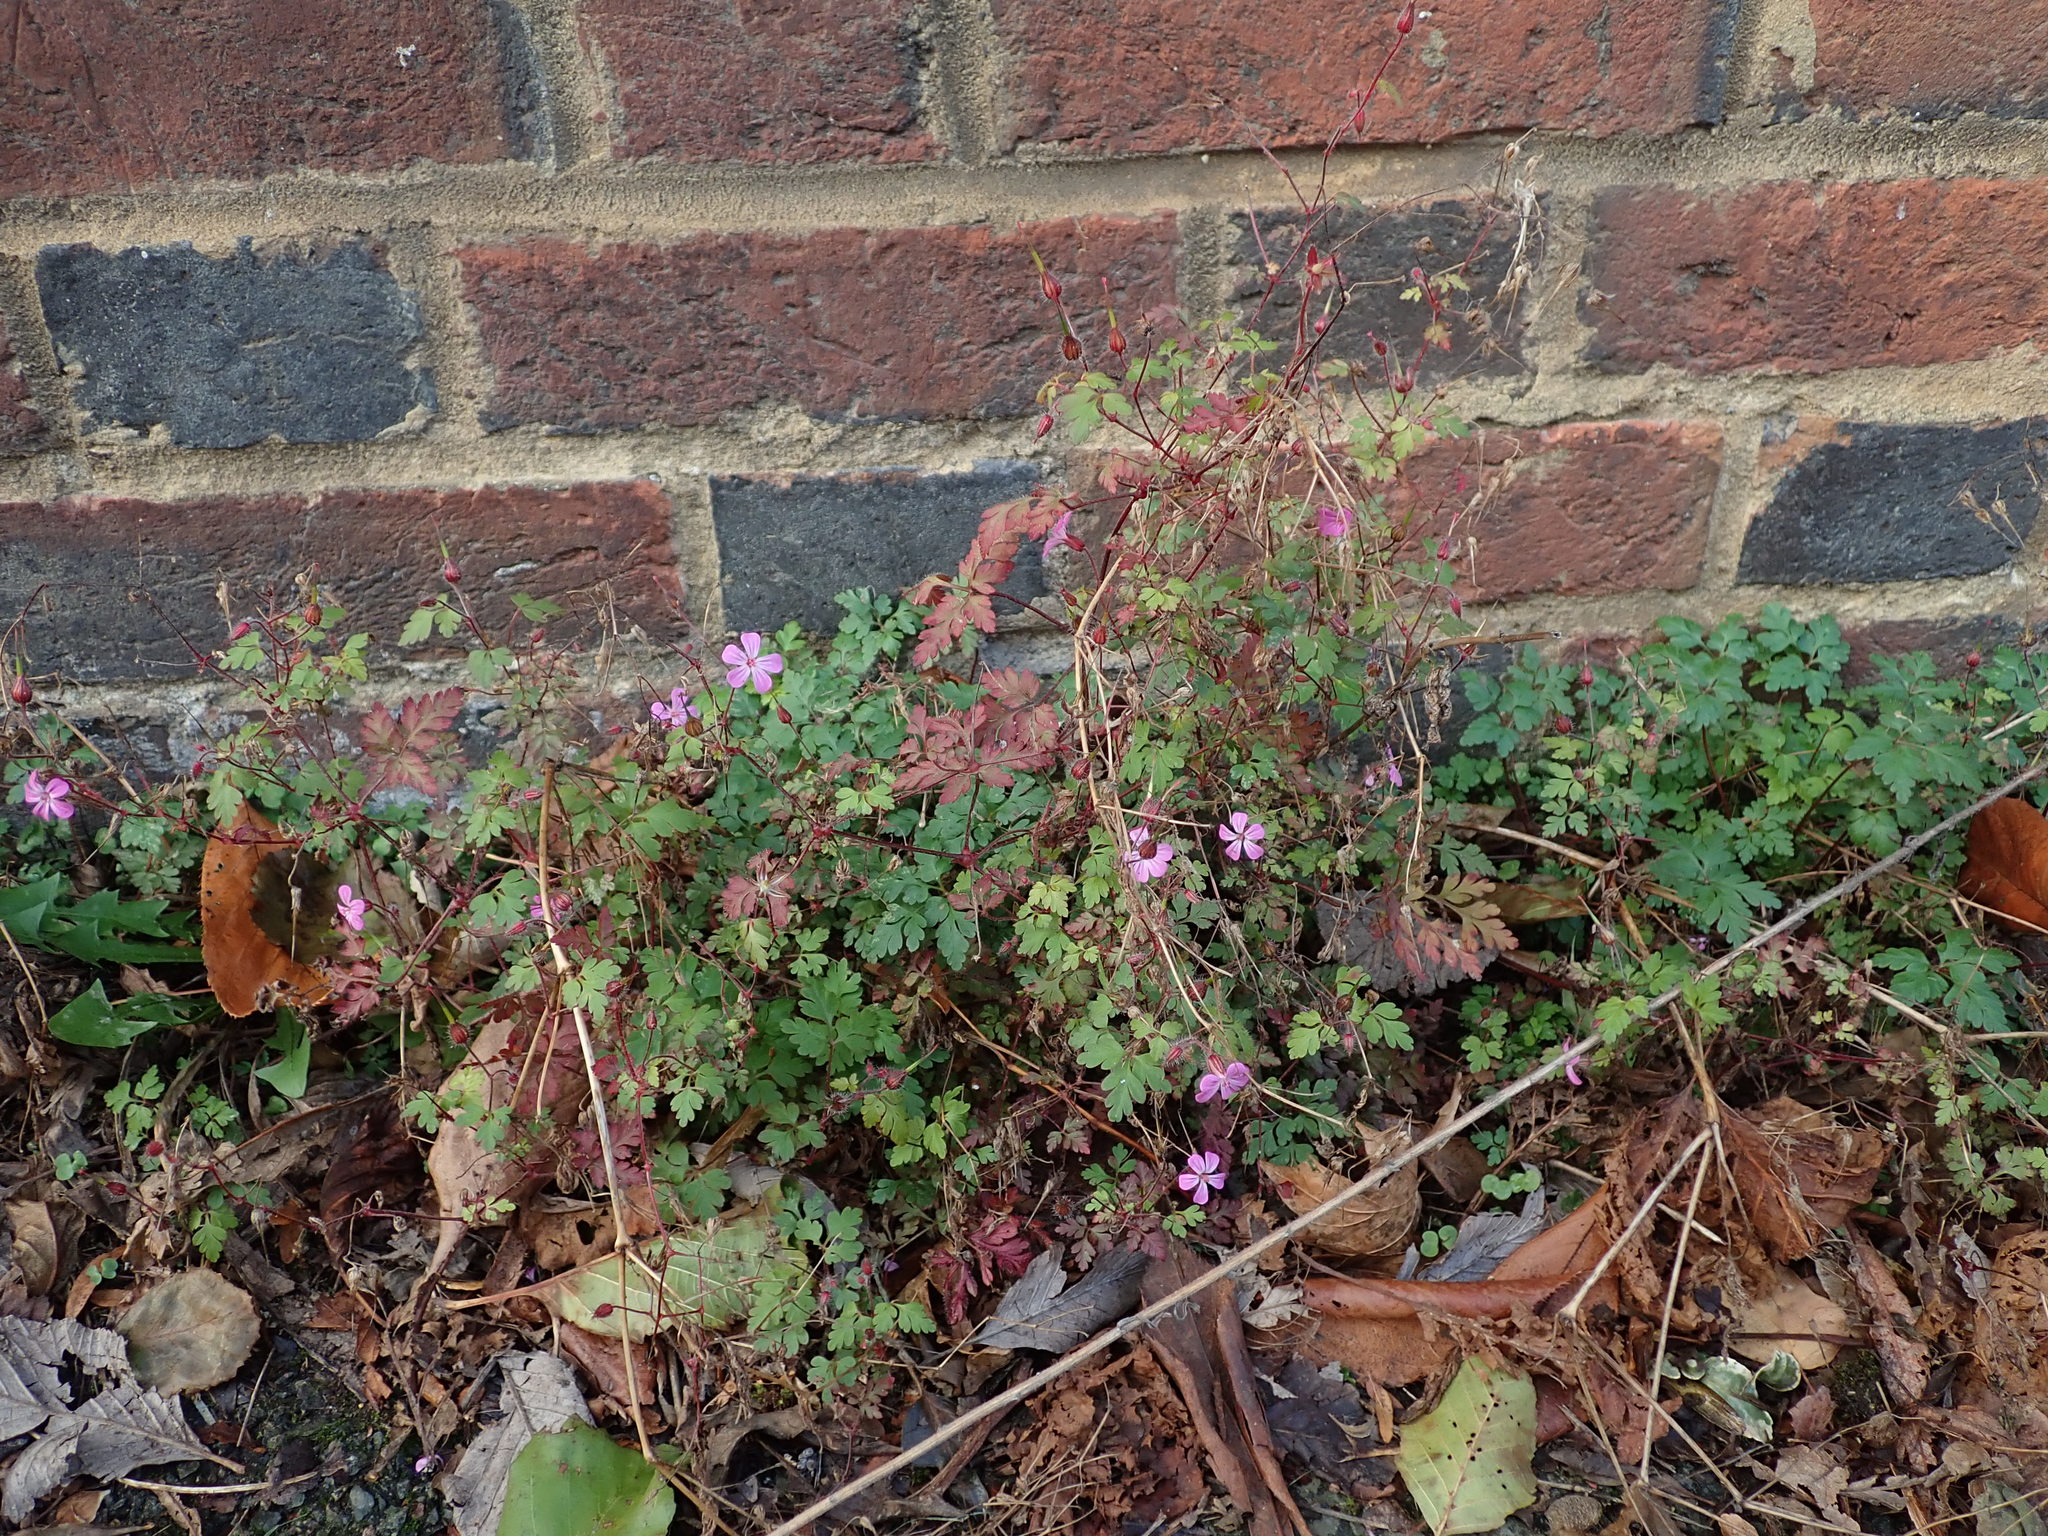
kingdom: Plantae
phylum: Tracheophyta
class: Magnoliopsida
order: Geraniales
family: Geraniaceae
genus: Geranium
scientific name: Geranium robertianum
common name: Herb-robert
